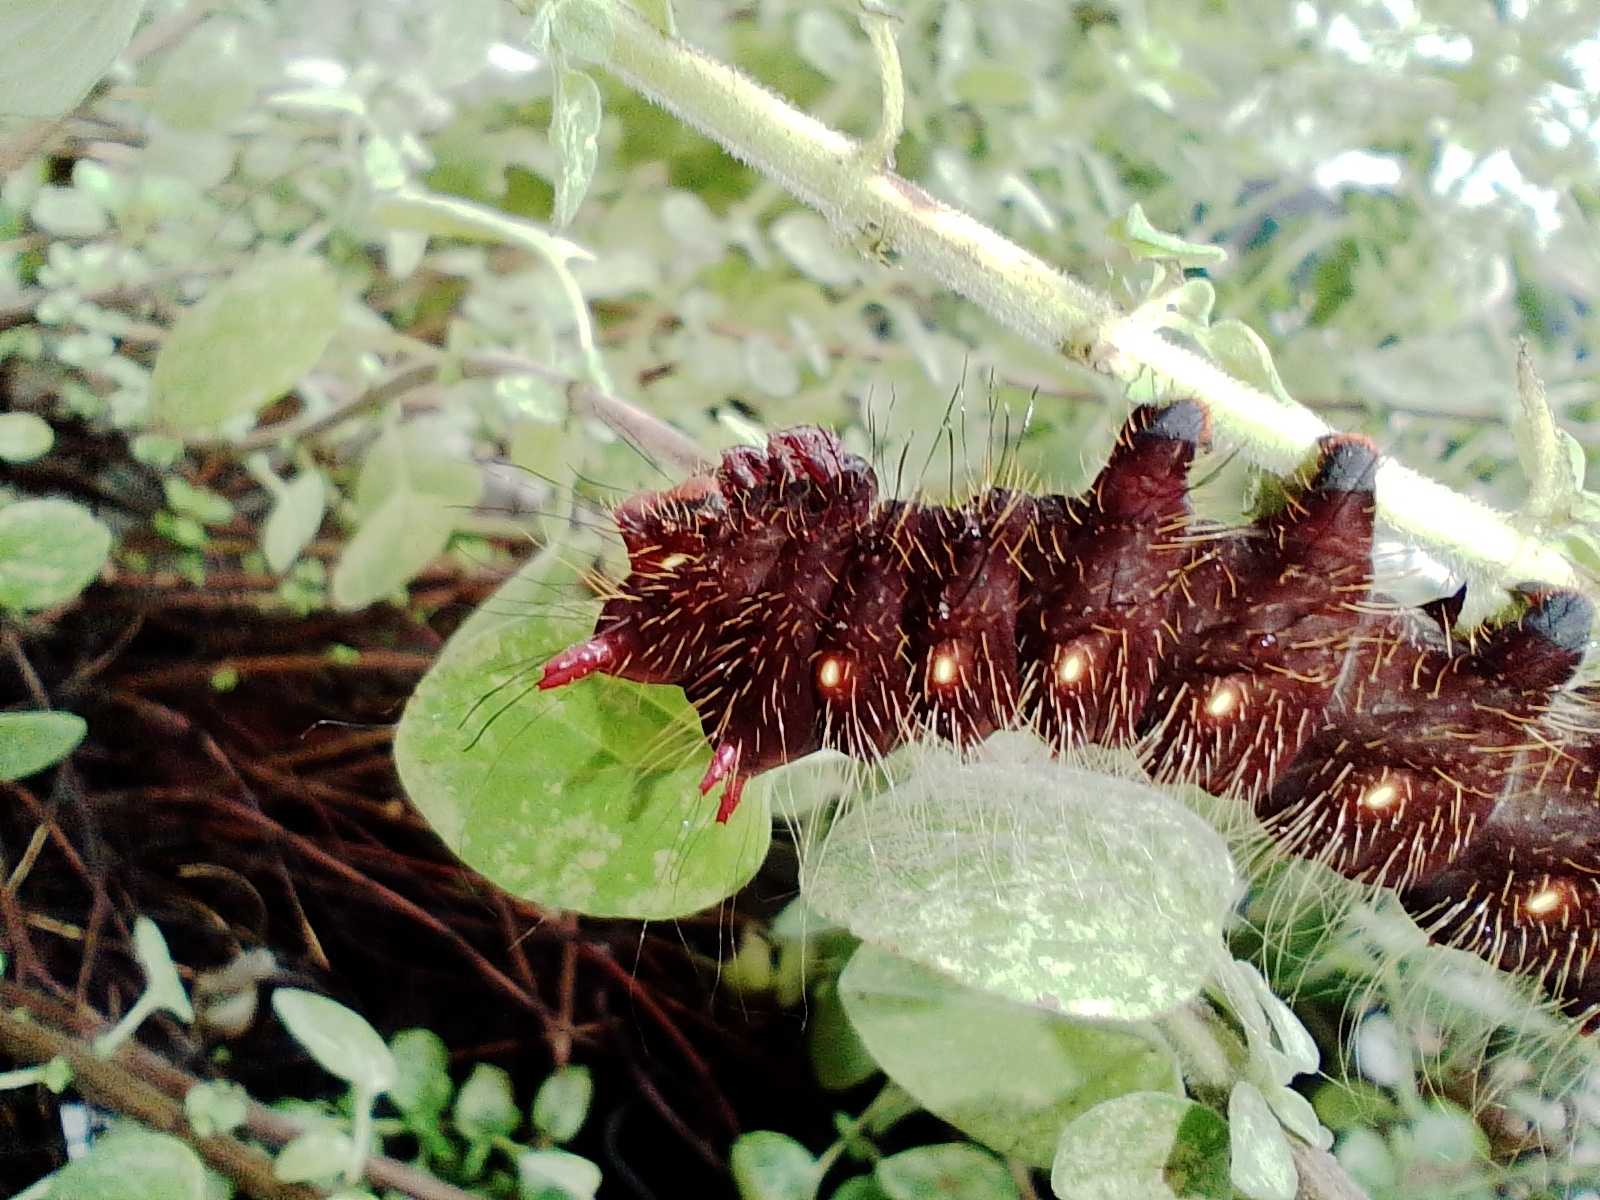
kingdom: Animalia
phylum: Arthropoda
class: Insecta
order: Lepidoptera
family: Saturniidae
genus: Eacles
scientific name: Eacles imperialis
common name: Imperial moth
